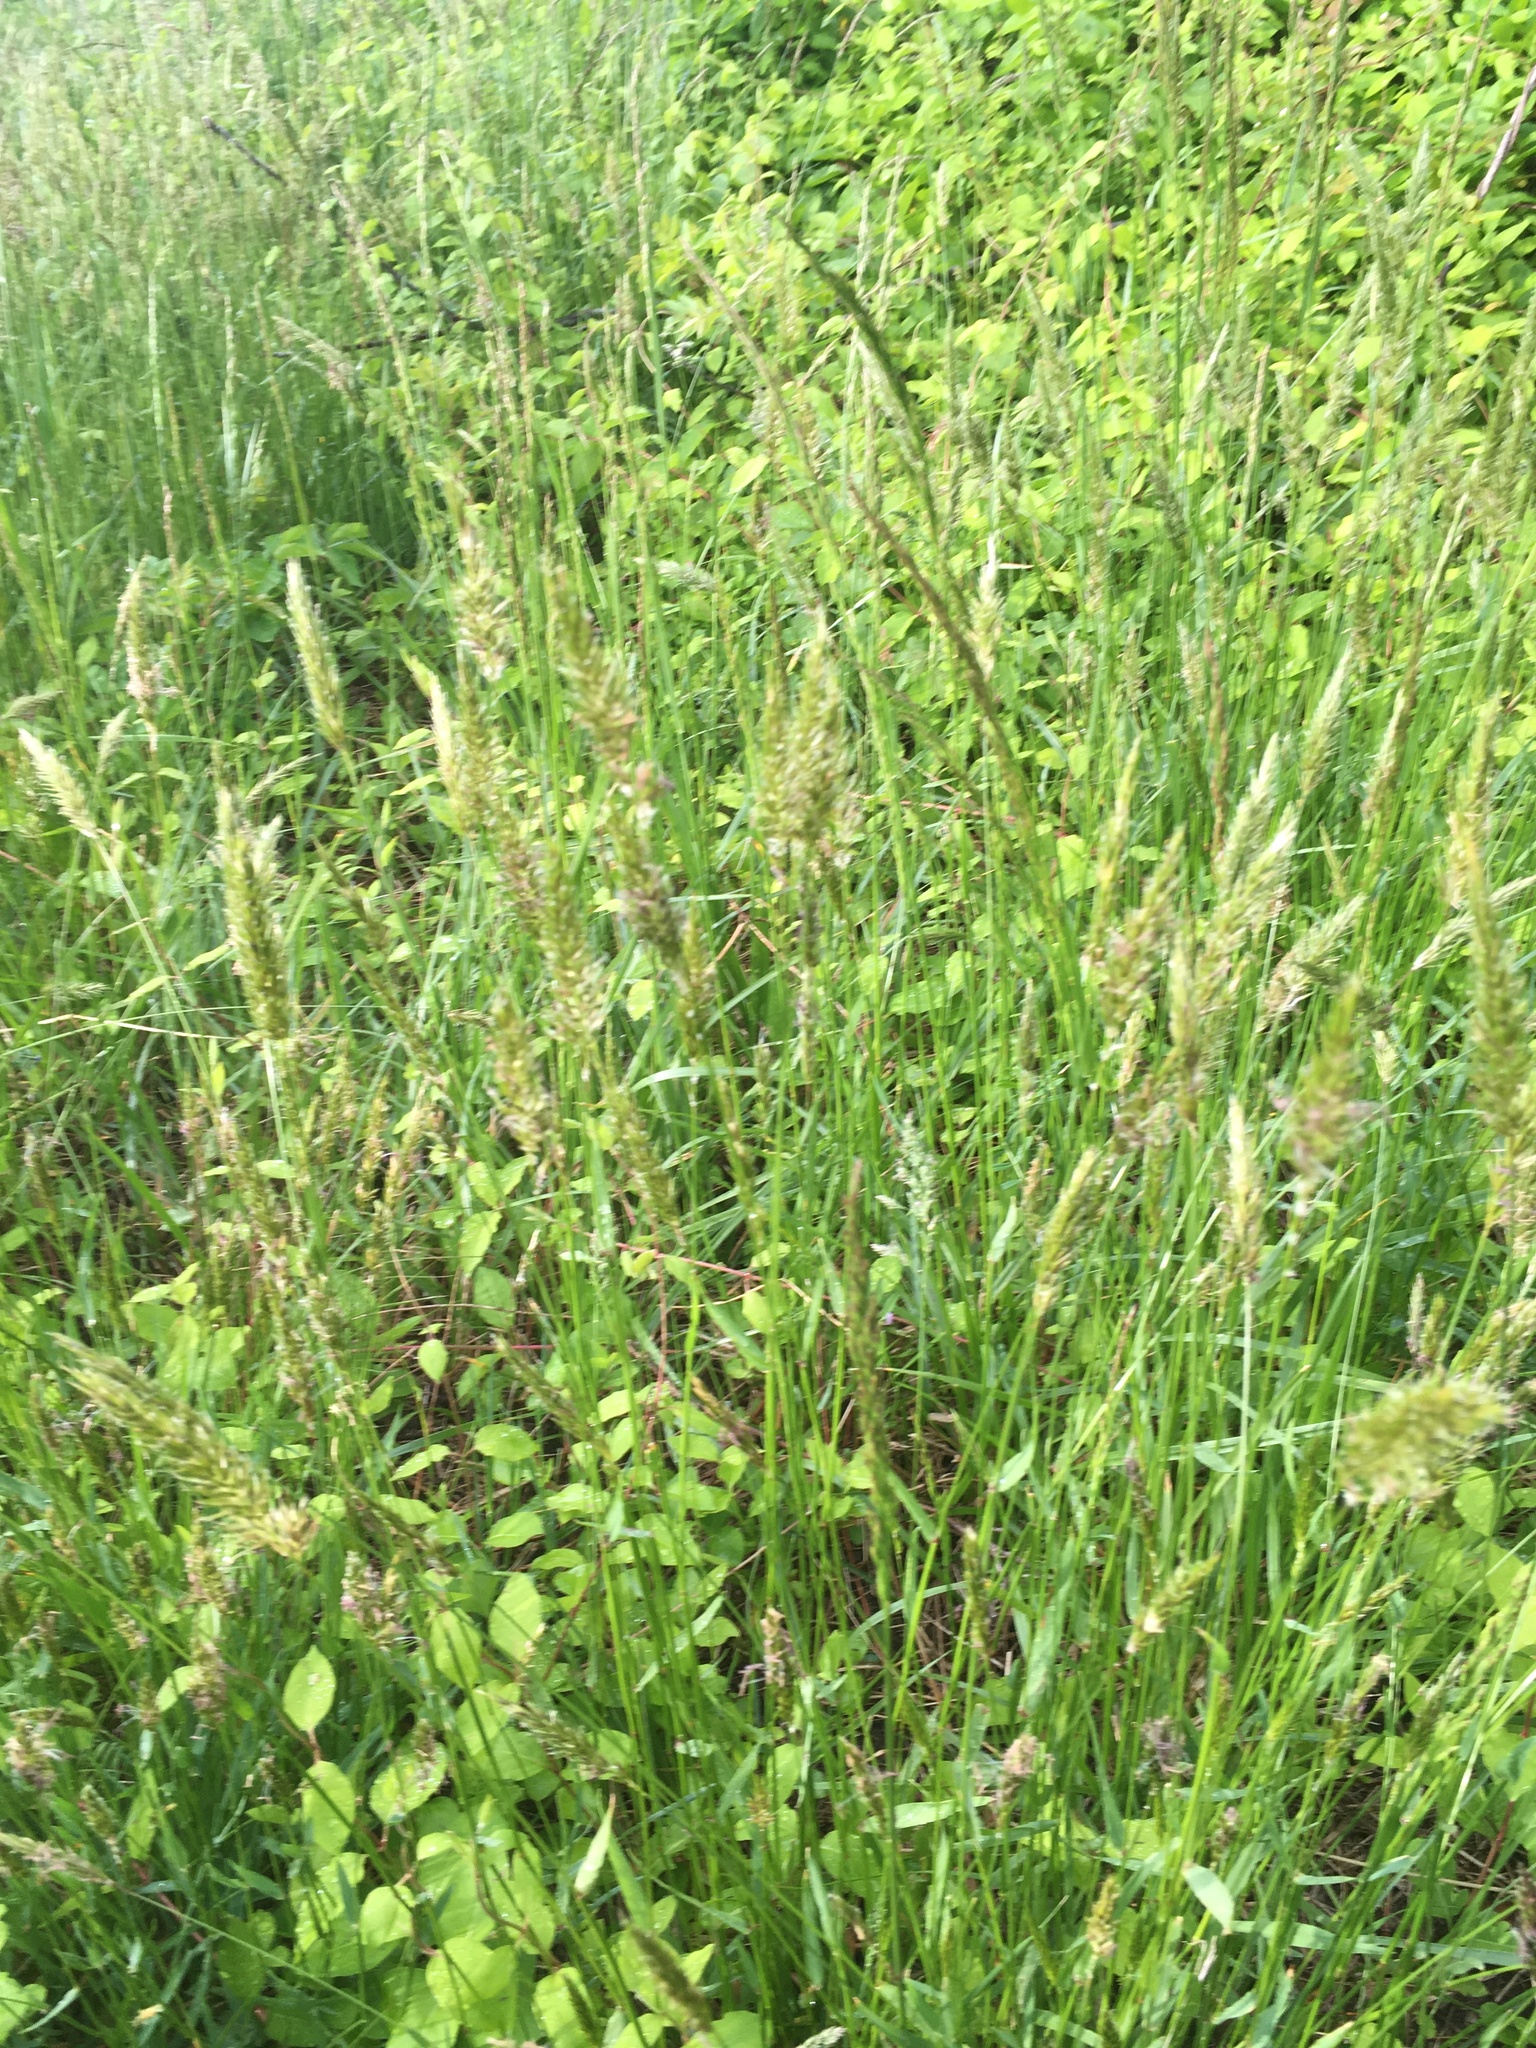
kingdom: Plantae
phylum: Tracheophyta
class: Liliopsida
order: Poales
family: Poaceae
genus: Anthoxanthum
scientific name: Anthoxanthum odoratum
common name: Sweet vernalgrass
